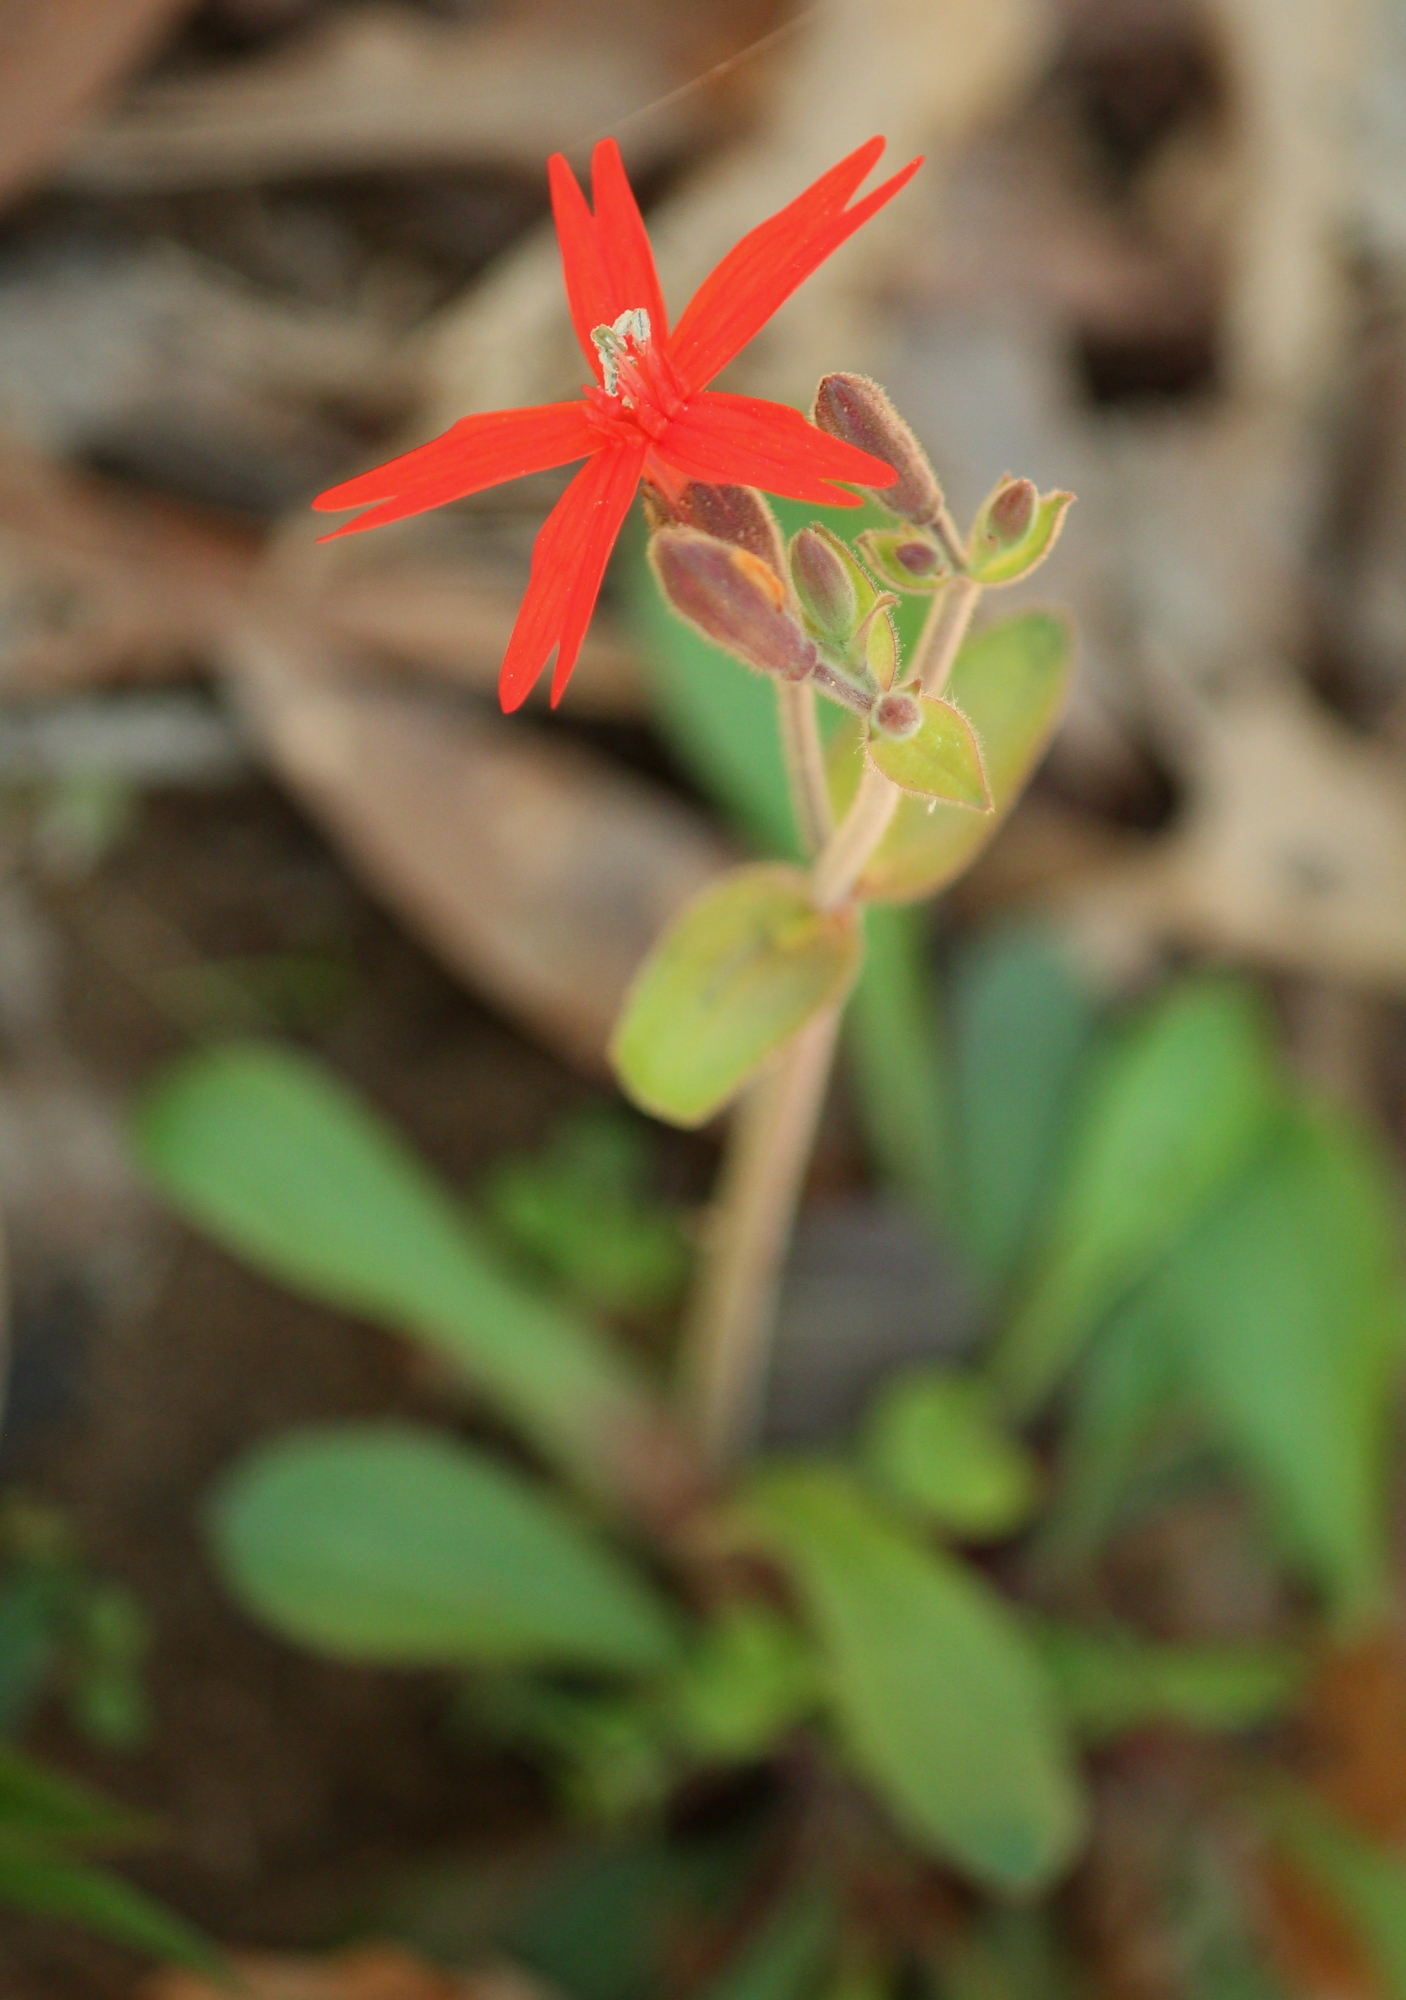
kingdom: Plantae
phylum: Tracheophyta
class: Magnoliopsida
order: Caryophyllales
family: Caryophyllaceae
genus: Silene
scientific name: Silene virginica
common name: Fire-pink
